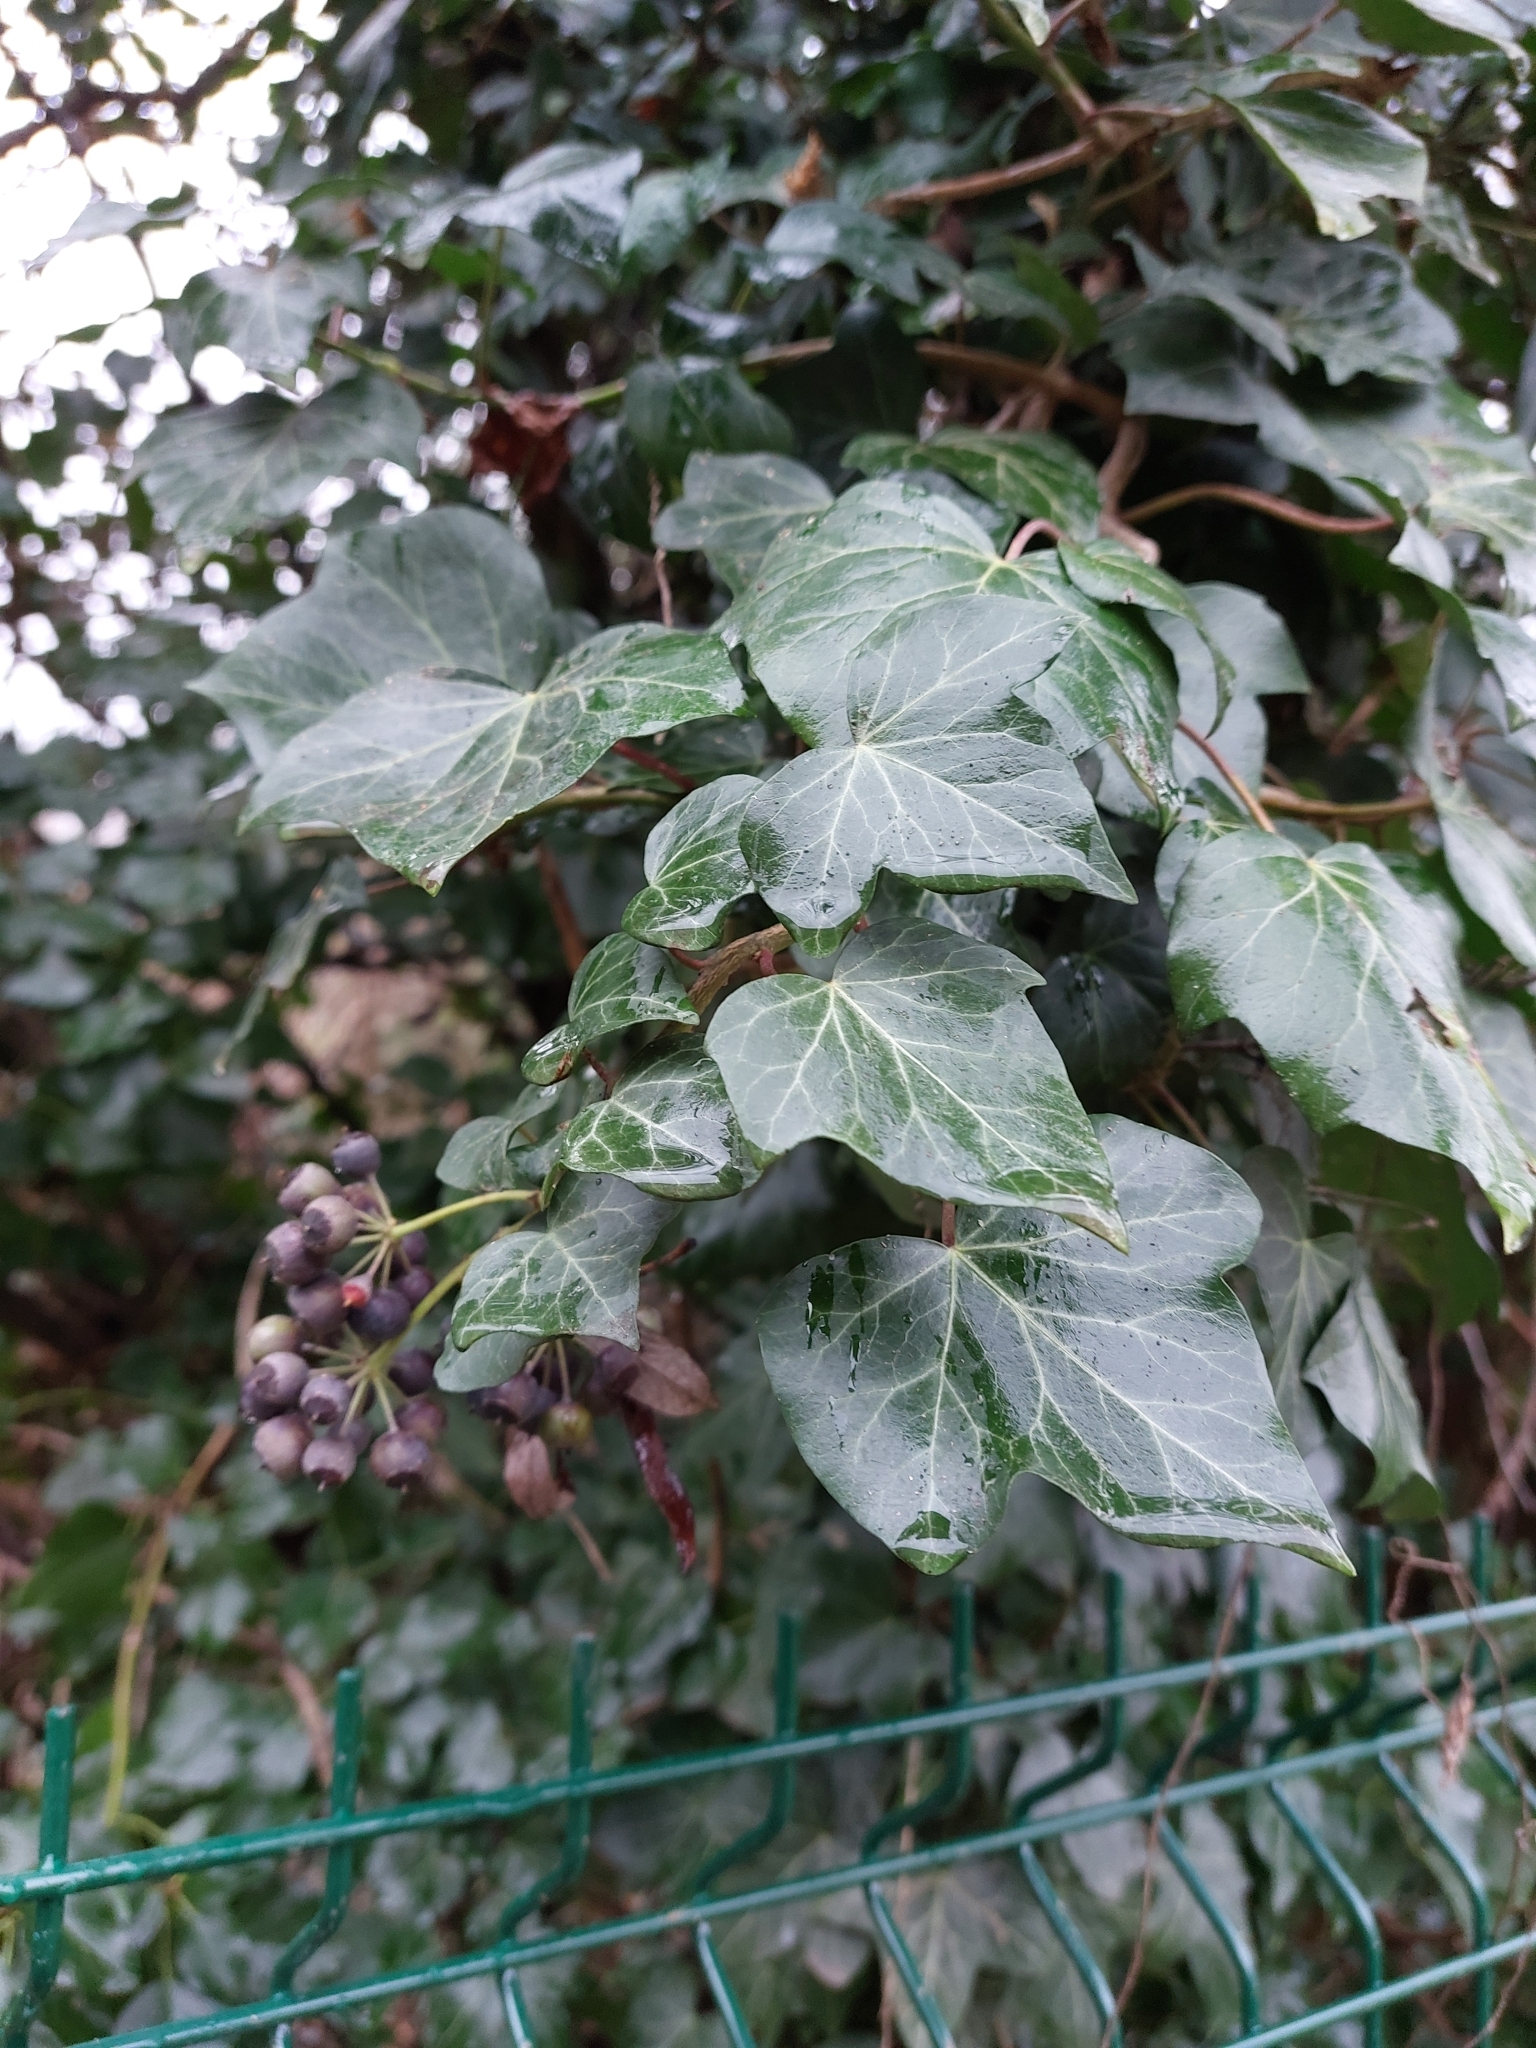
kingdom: Plantae
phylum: Tracheophyta
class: Magnoliopsida
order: Apiales
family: Araliaceae
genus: Hedera
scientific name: Hedera helix
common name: Ivy
